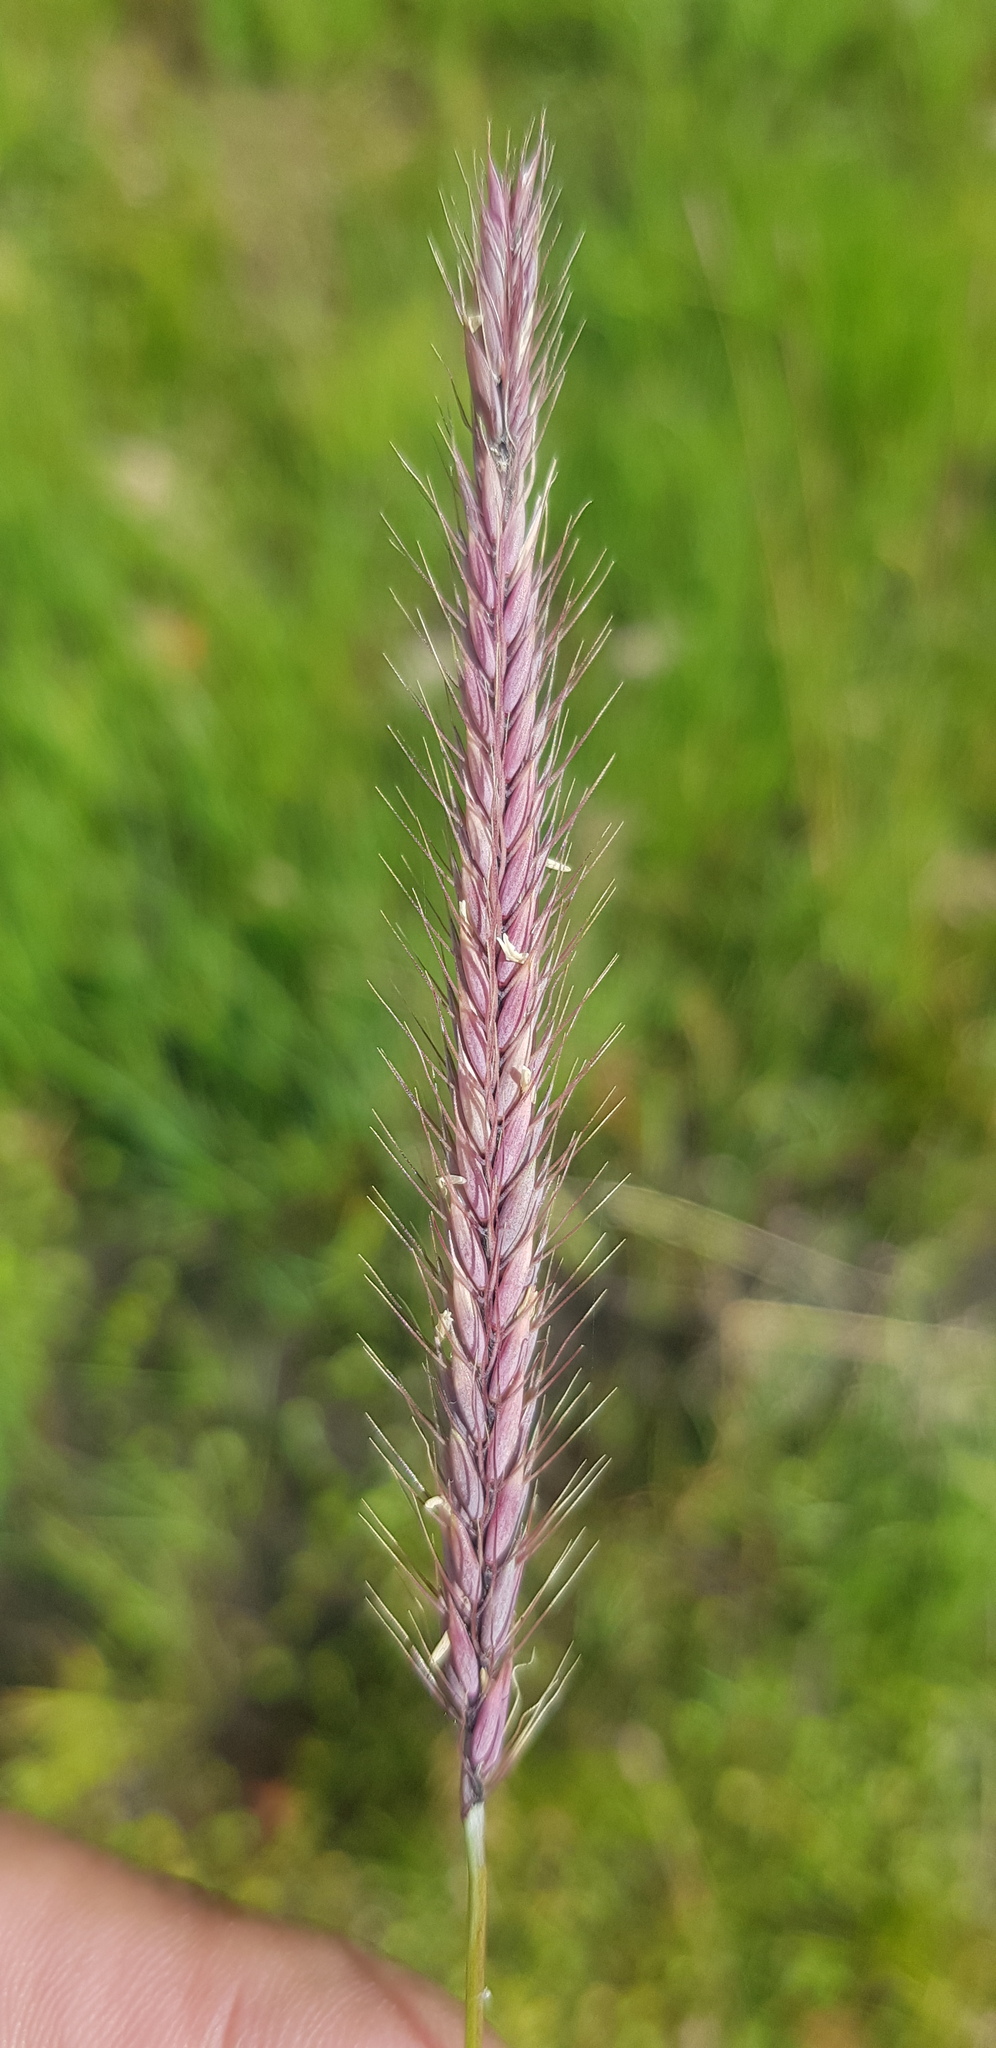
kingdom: Plantae
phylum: Tracheophyta
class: Liliopsida
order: Poales
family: Poaceae
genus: Hordeum
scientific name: Hordeum brevisubulatum
